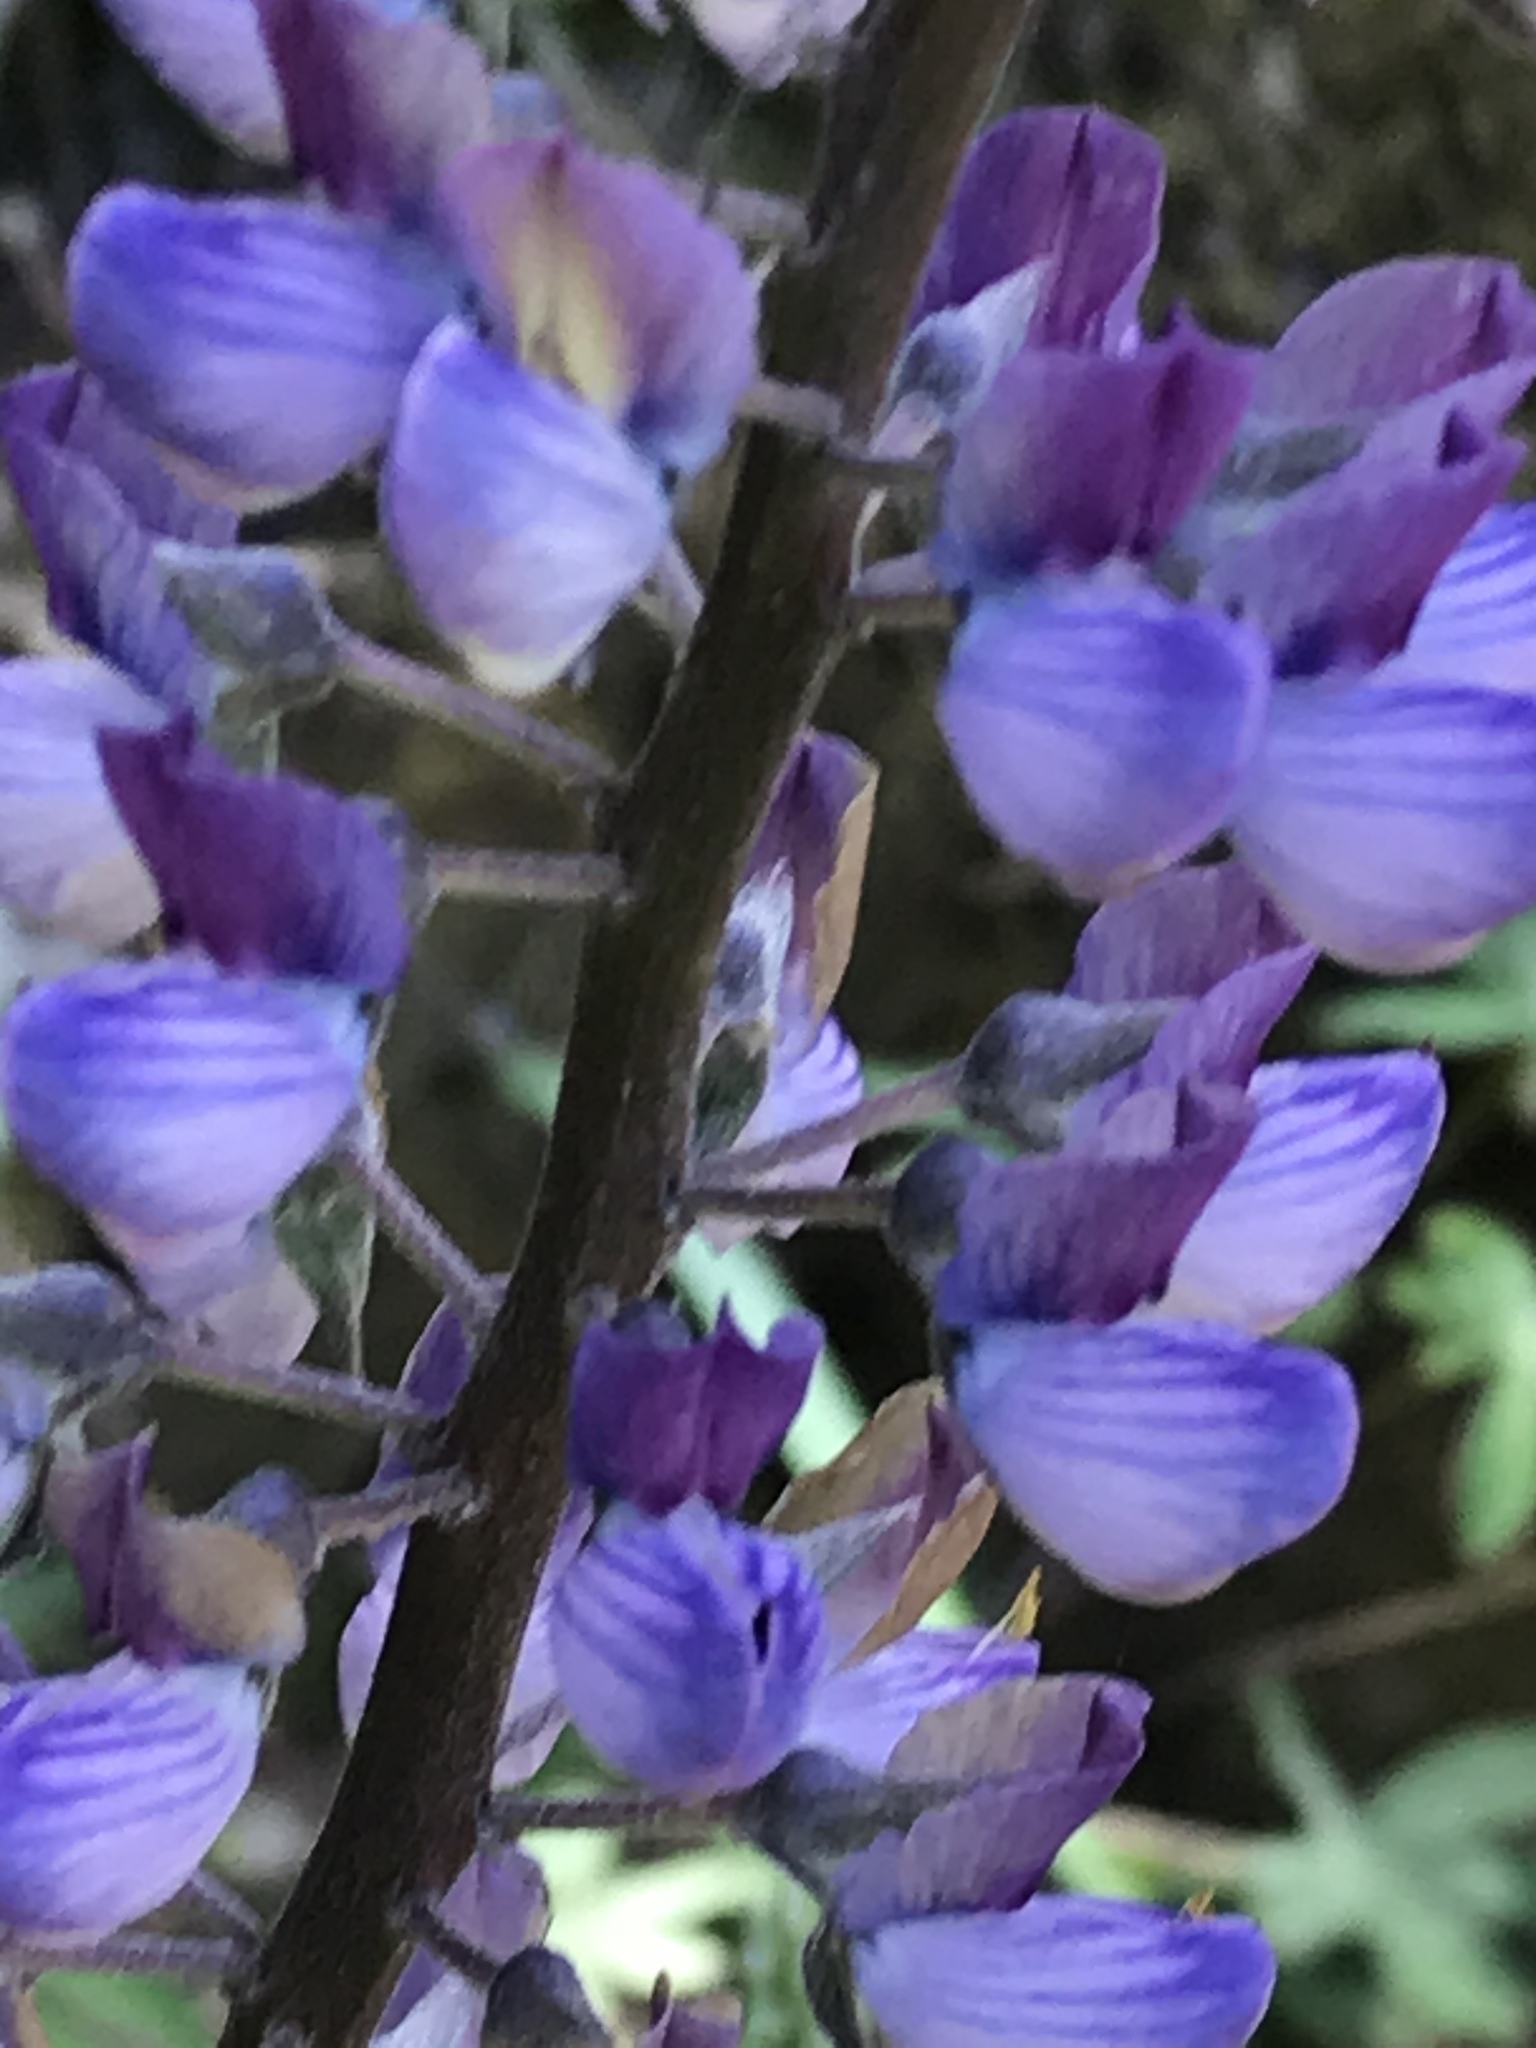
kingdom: Plantae
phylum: Tracheophyta
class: Magnoliopsida
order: Fabales
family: Fabaceae
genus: Lupinus
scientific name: Lupinus latifolius
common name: Broad-leaved lupine
